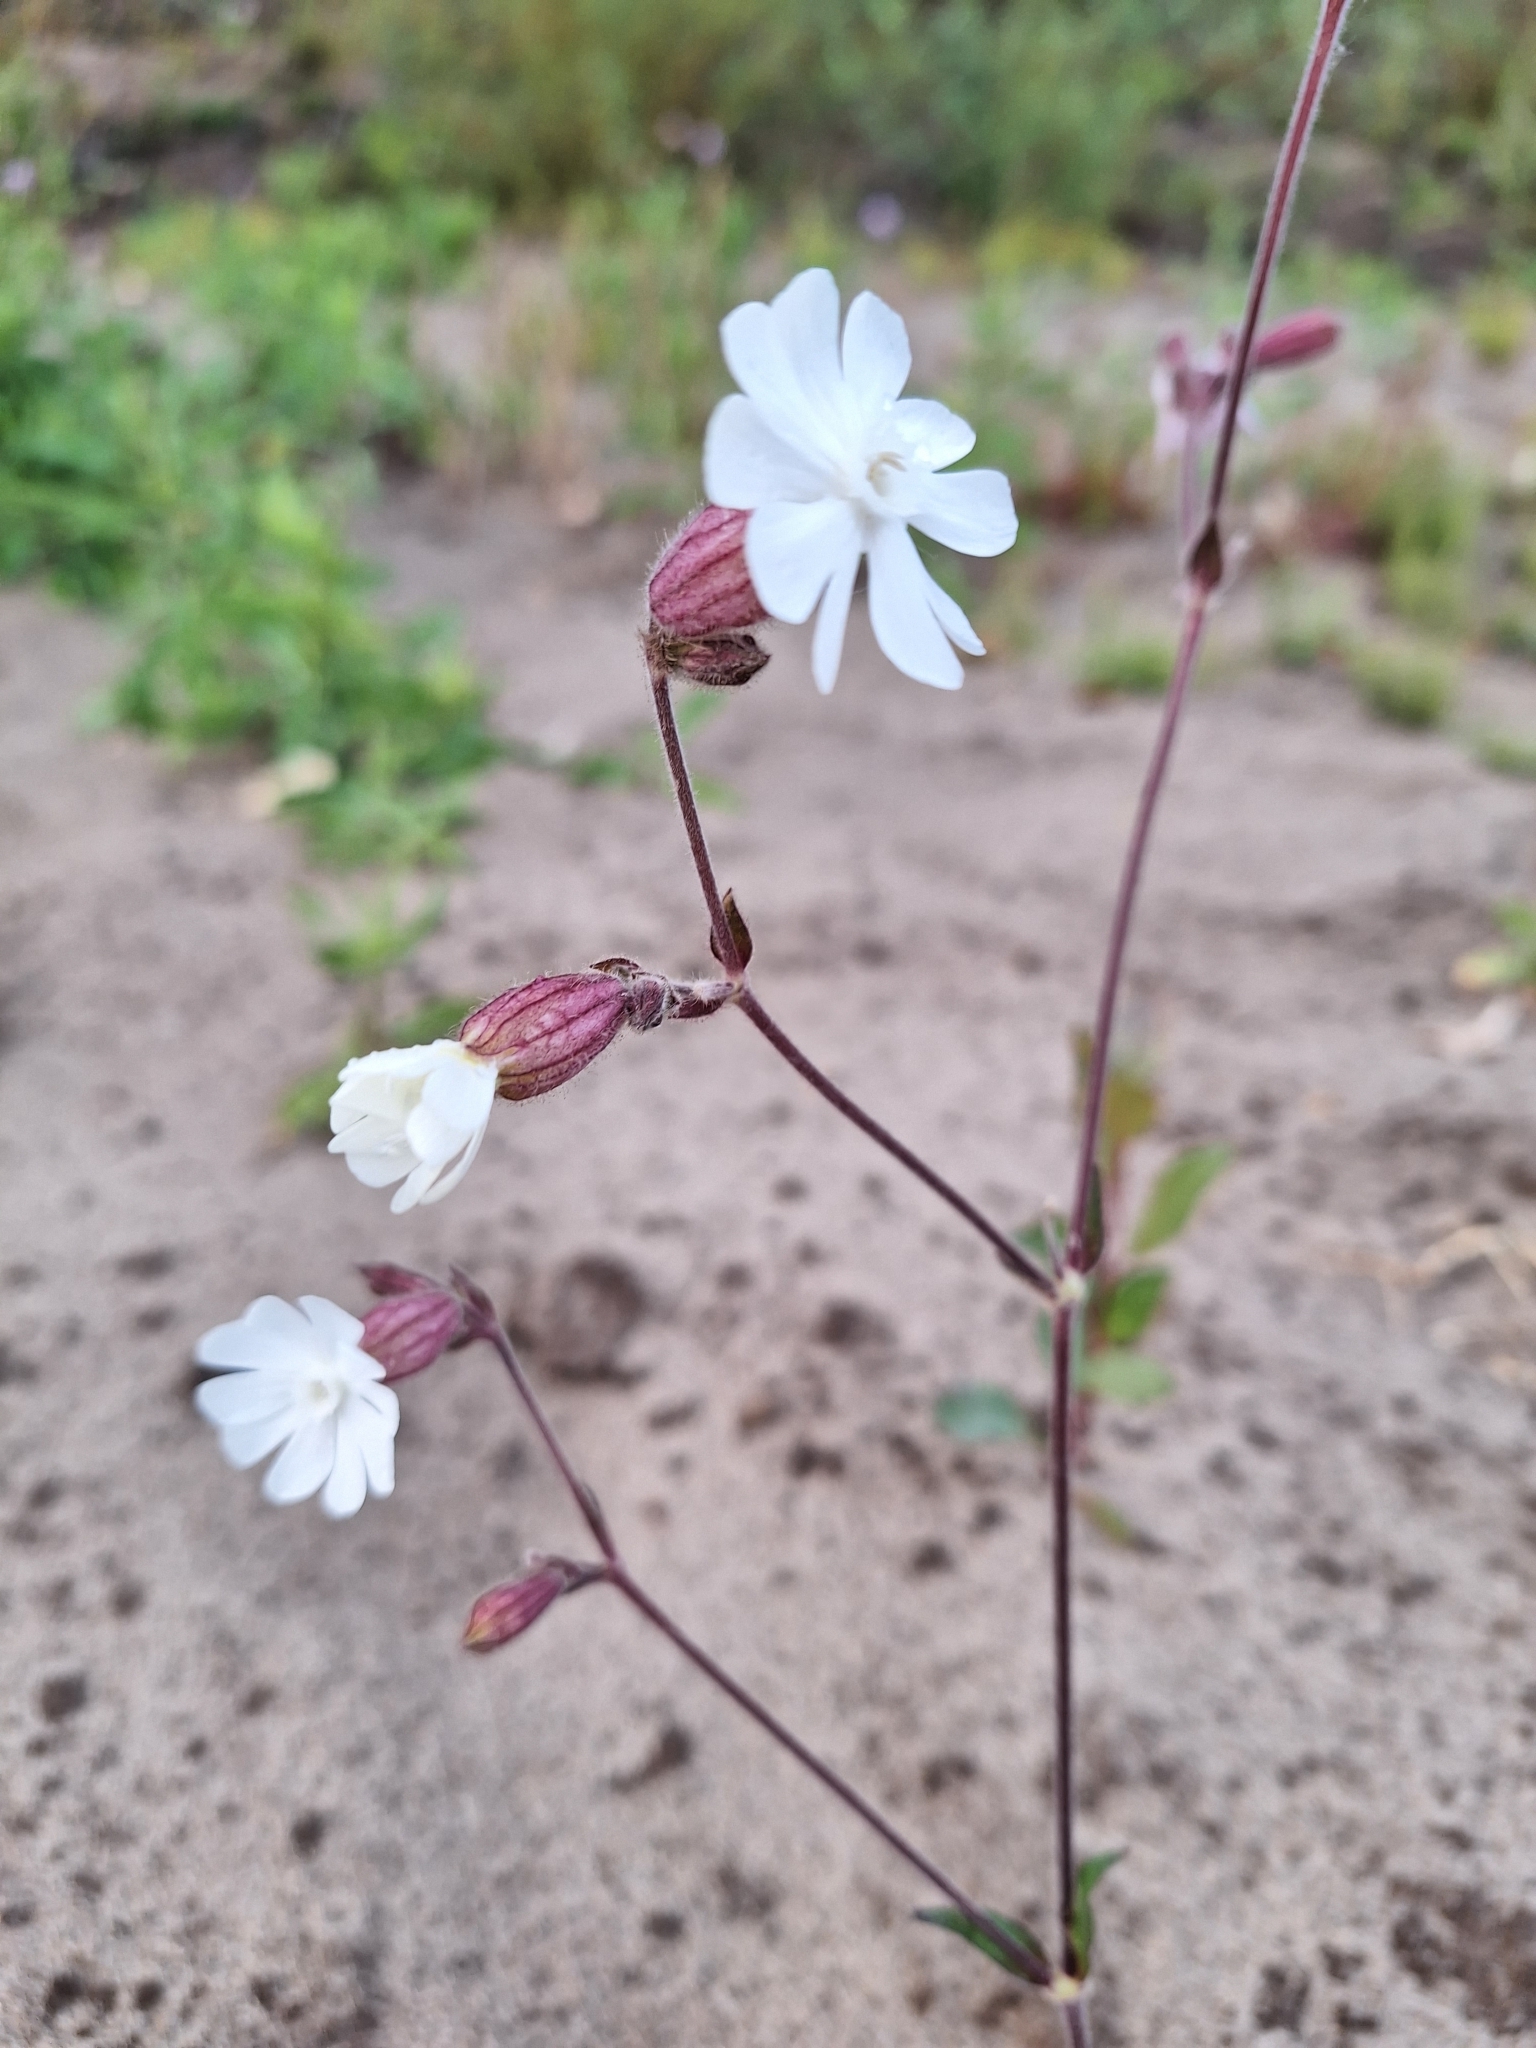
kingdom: Plantae
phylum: Tracheophyta
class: Magnoliopsida
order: Caryophyllales
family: Caryophyllaceae
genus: Silene
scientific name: Silene latifolia
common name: White campion
